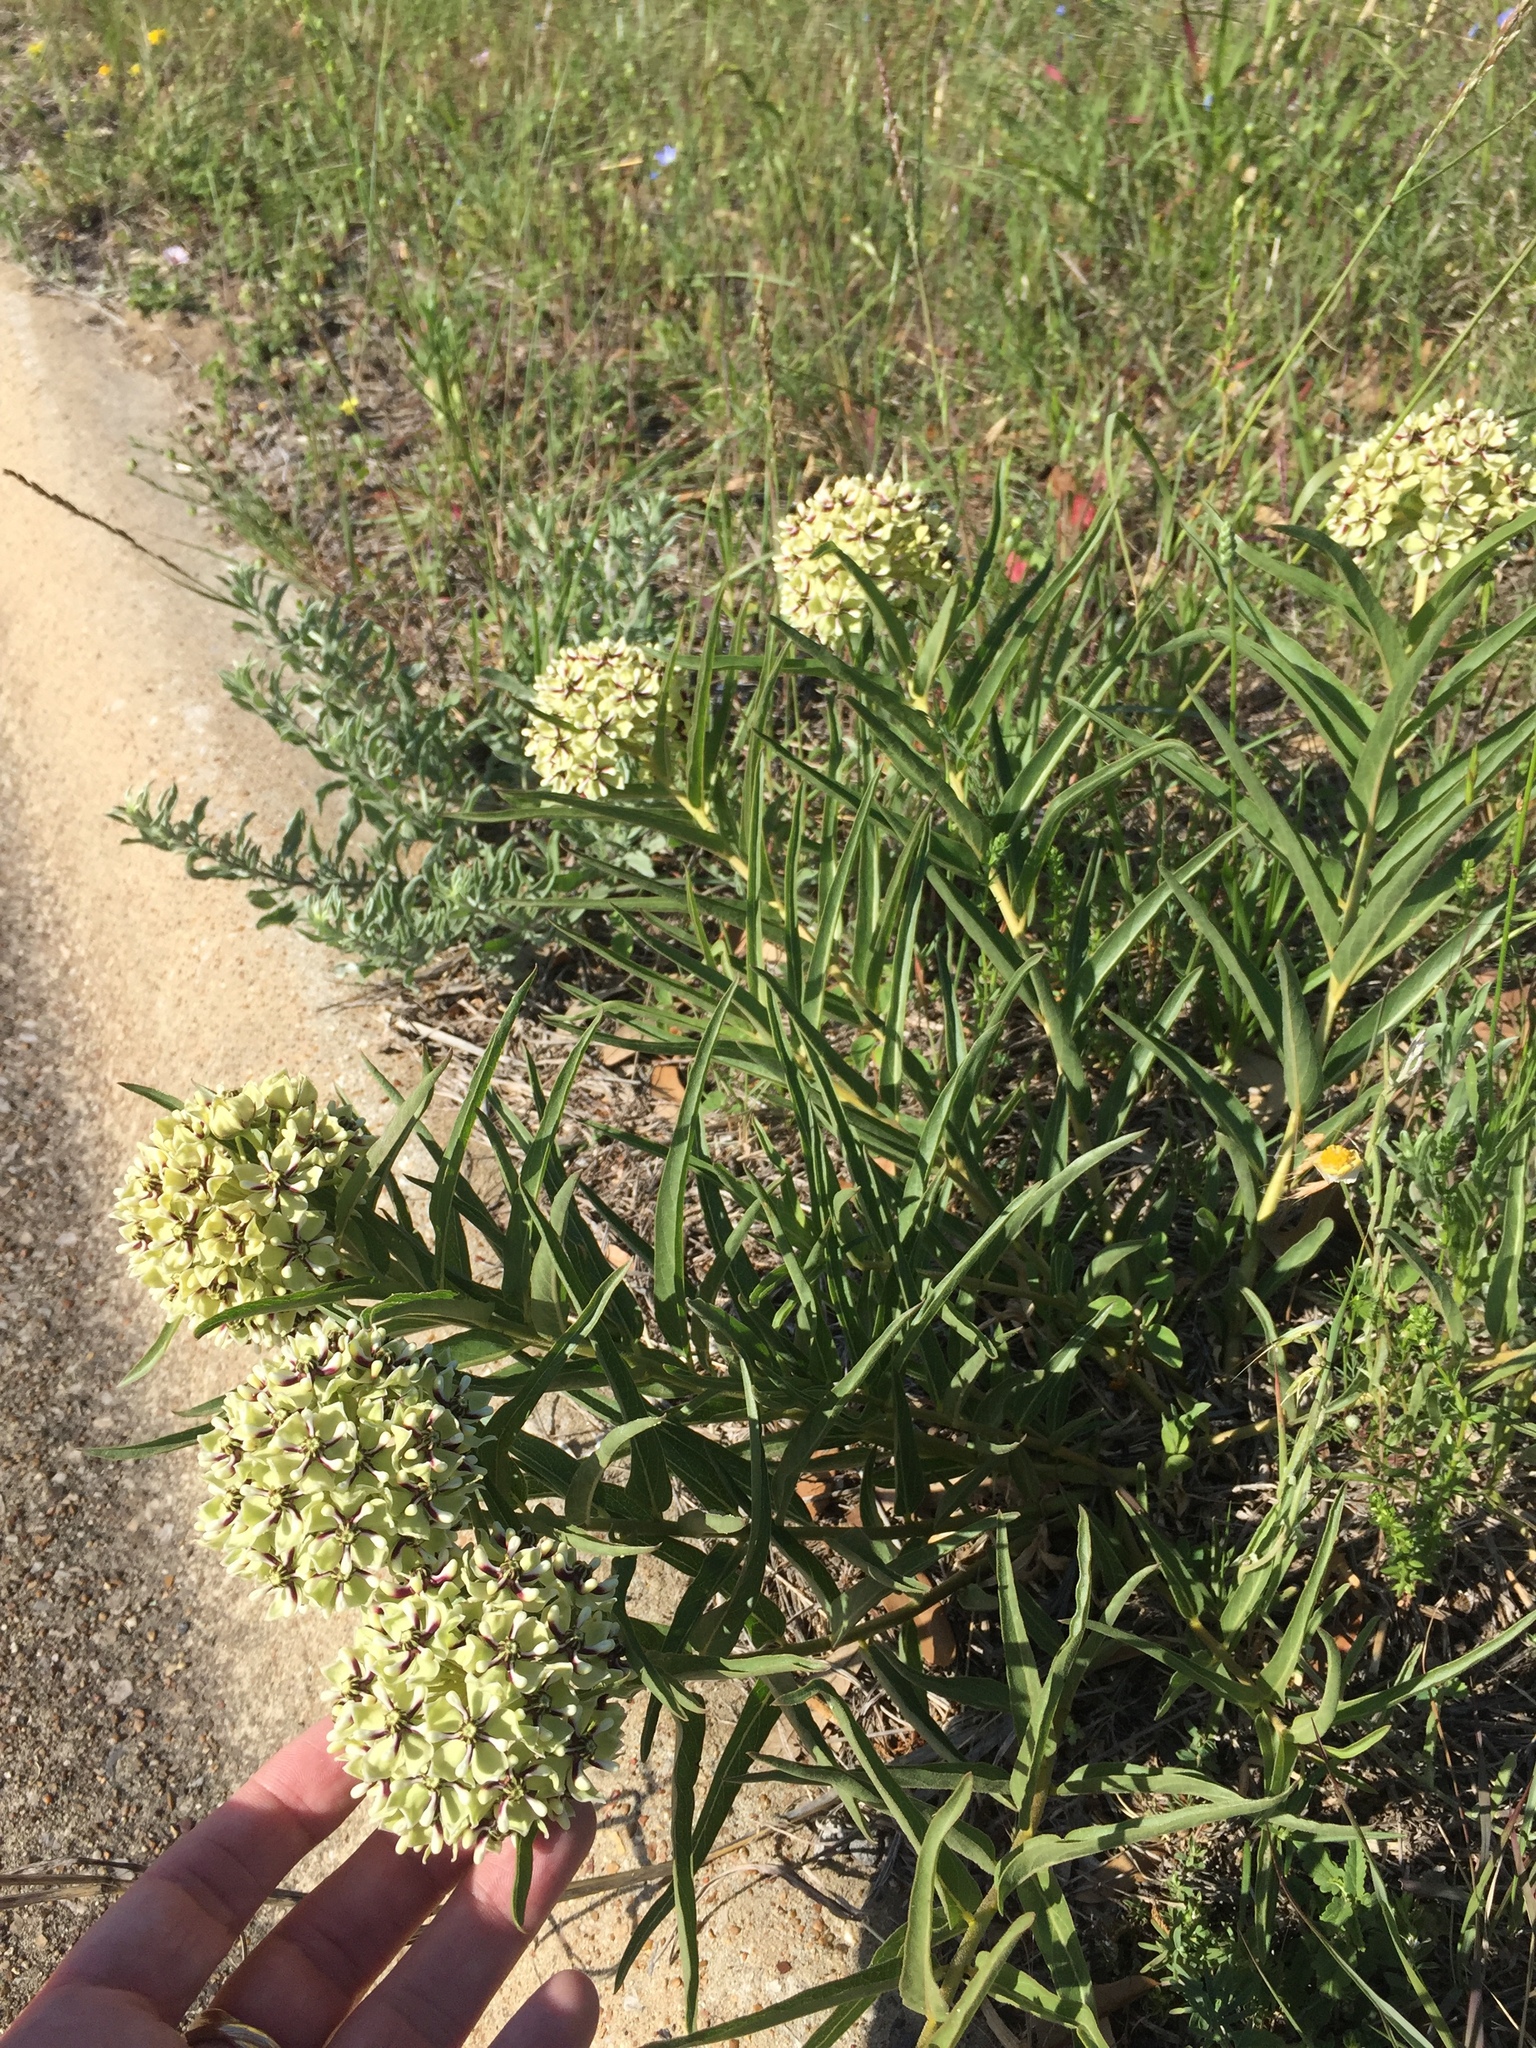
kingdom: Plantae
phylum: Tracheophyta
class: Magnoliopsida
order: Gentianales
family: Apocynaceae
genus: Asclepias
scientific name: Asclepias asperula
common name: Antelope horns
